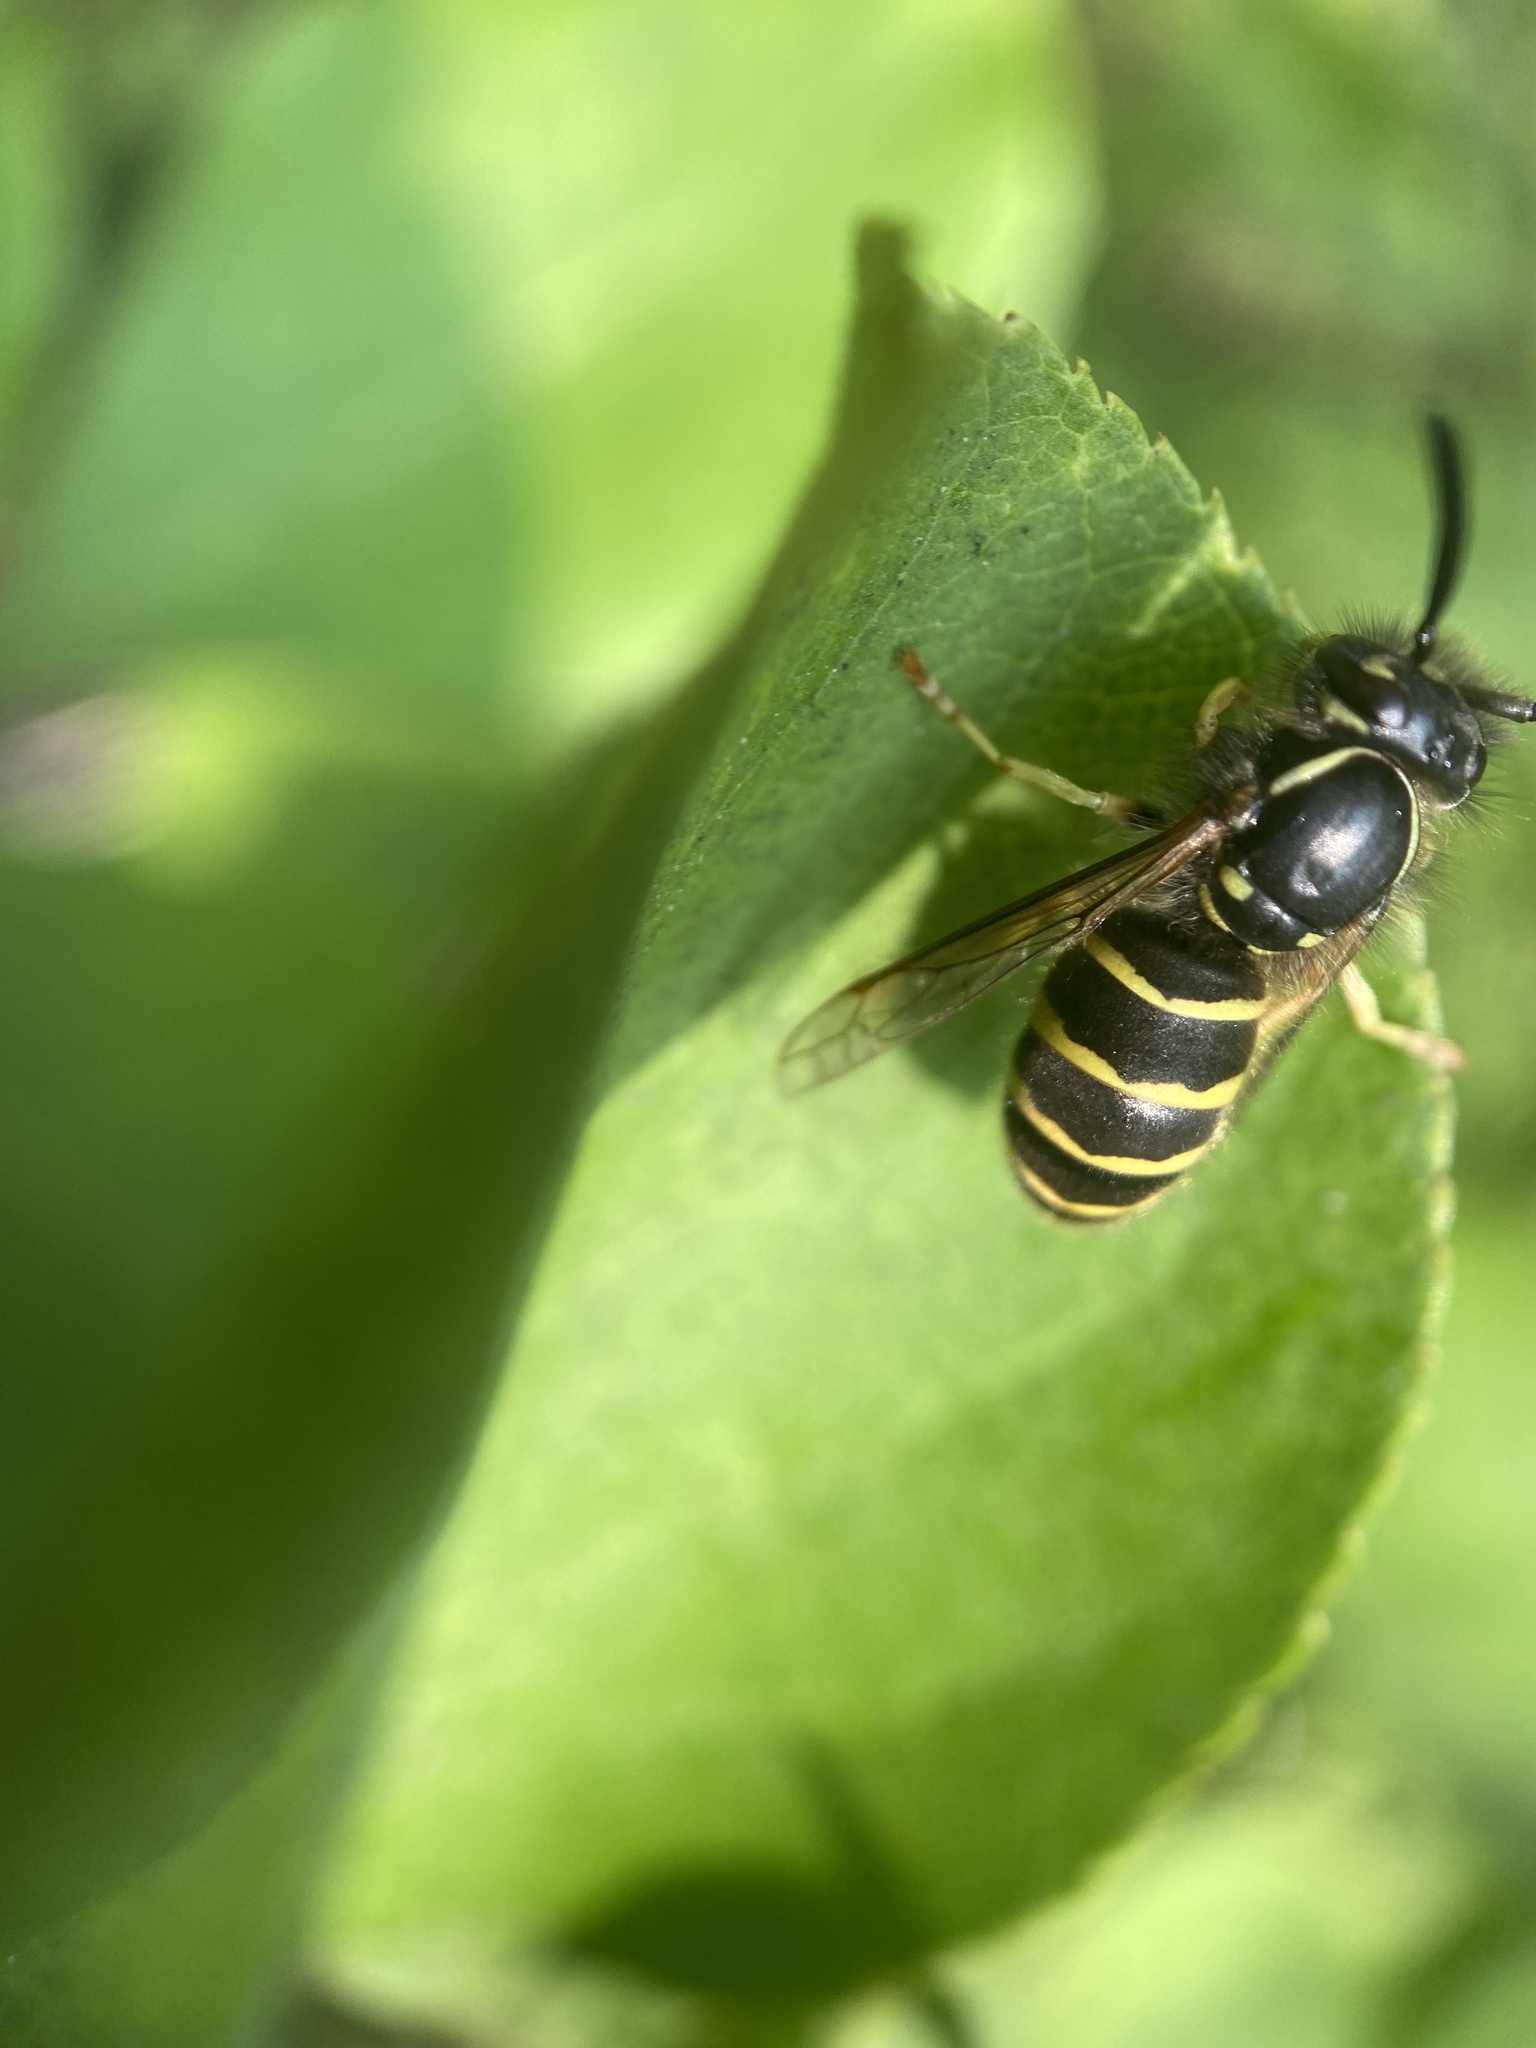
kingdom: Animalia
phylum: Arthropoda
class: Insecta
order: Hymenoptera
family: Vespidae
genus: Vespula
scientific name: Vespula alascensis
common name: Alaska yellowjacket
